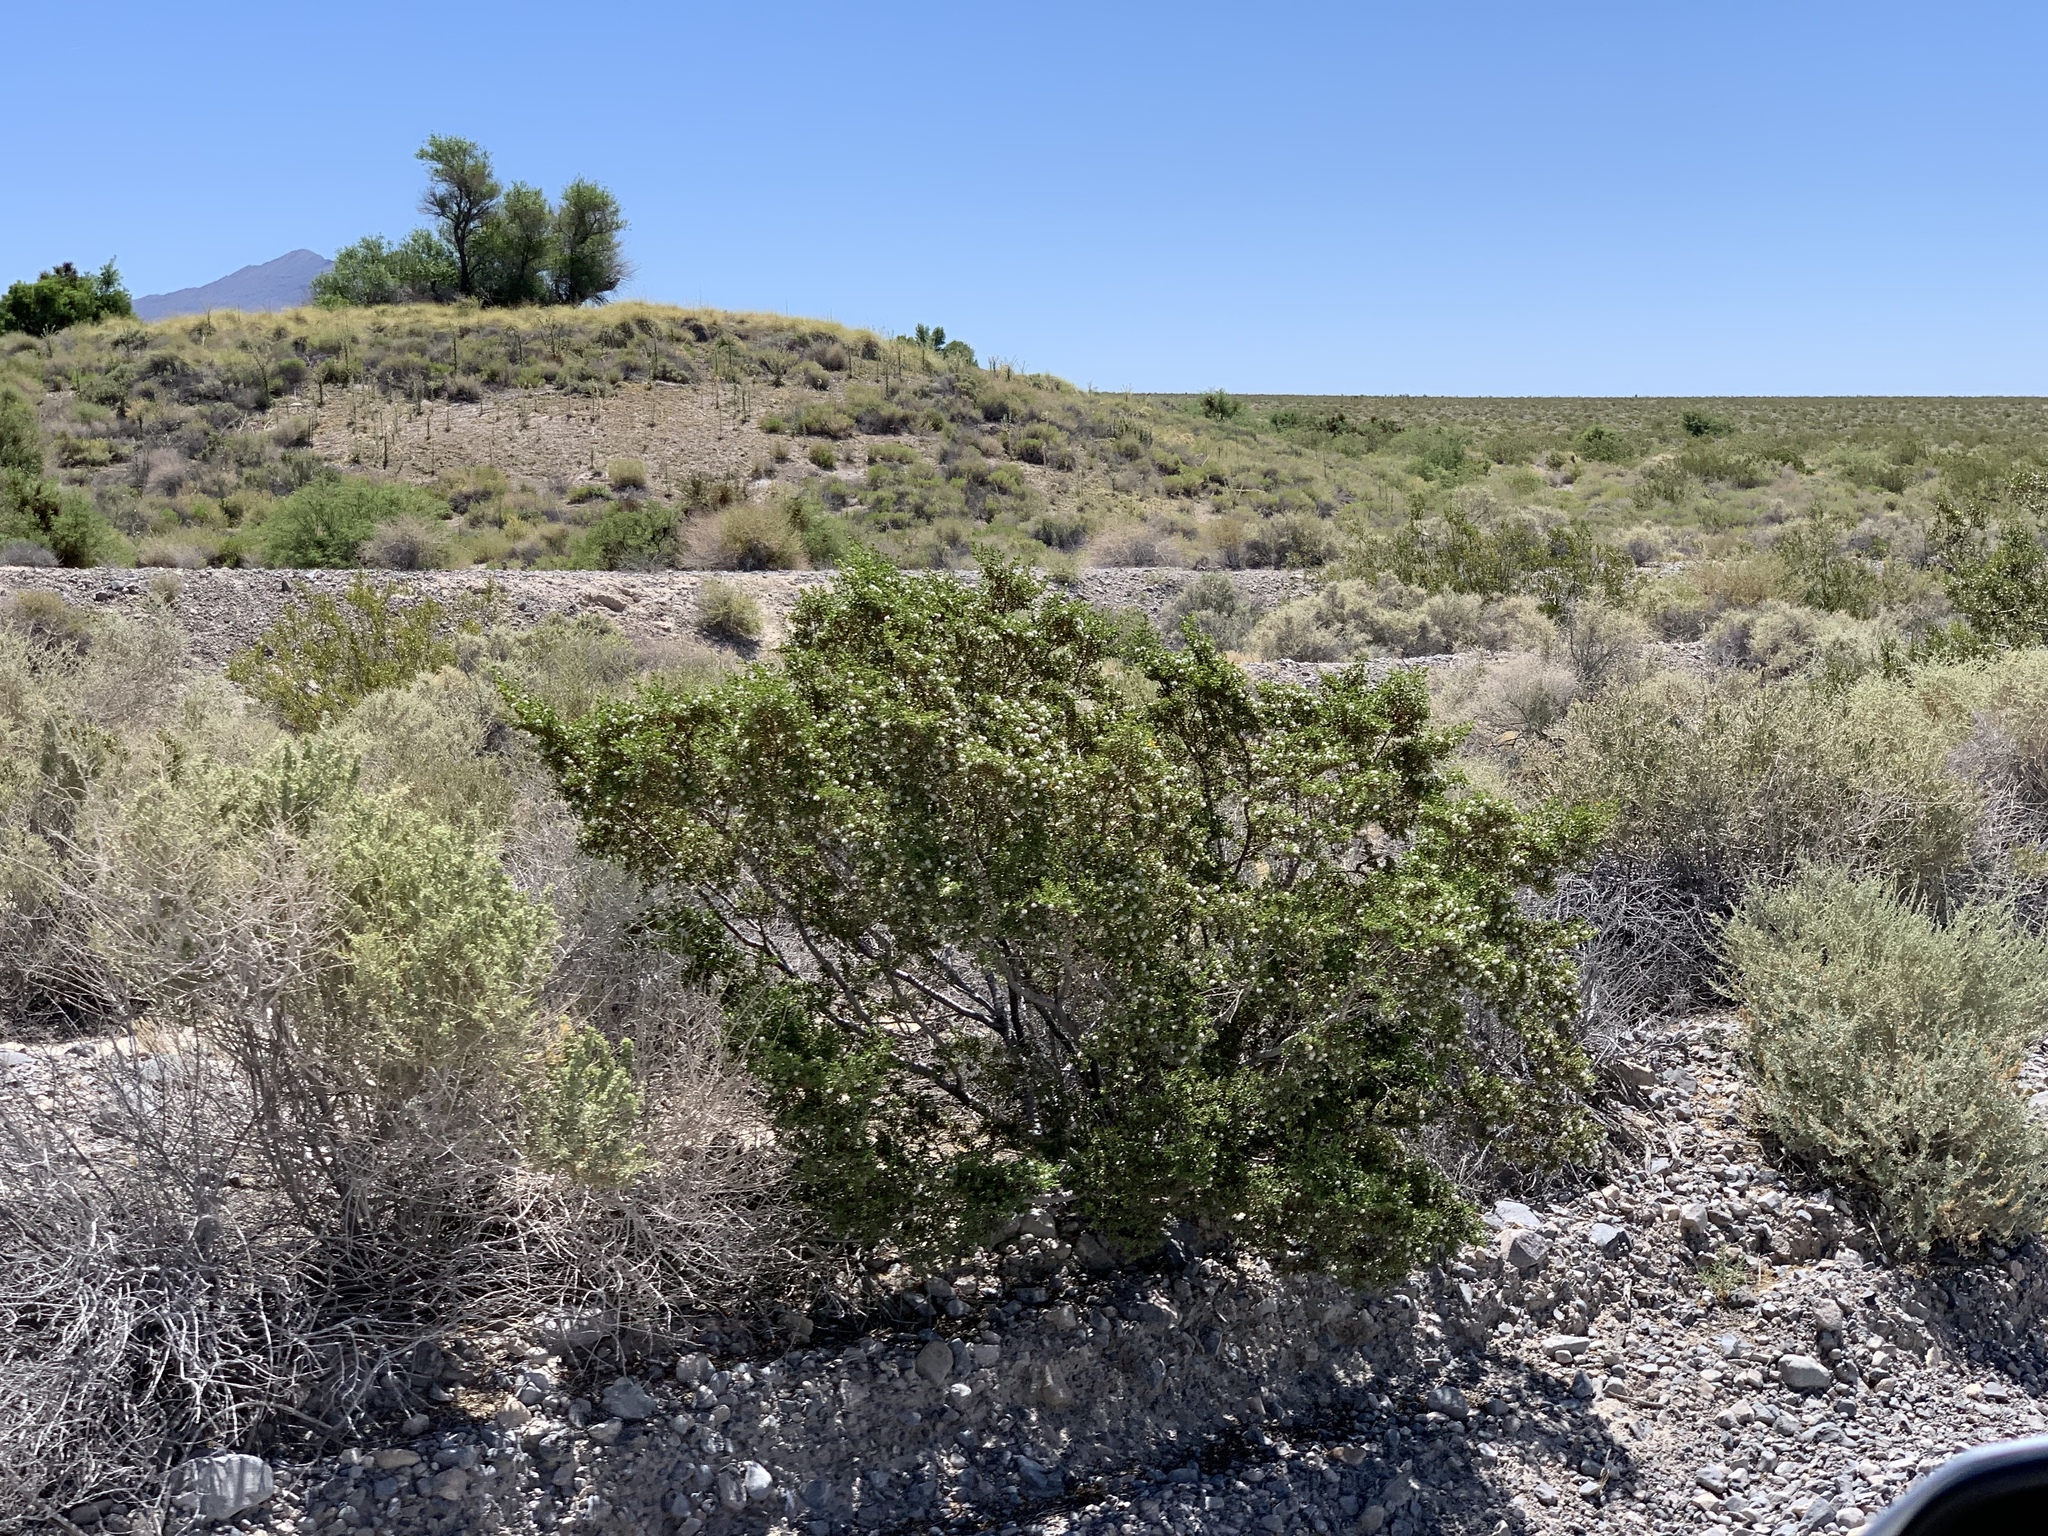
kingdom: Plantae
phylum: Tracheophyta
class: Magnoliopsida
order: Zygophyllales
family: Zygophyllaceae
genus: Larrea
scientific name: Larrea tridentata
